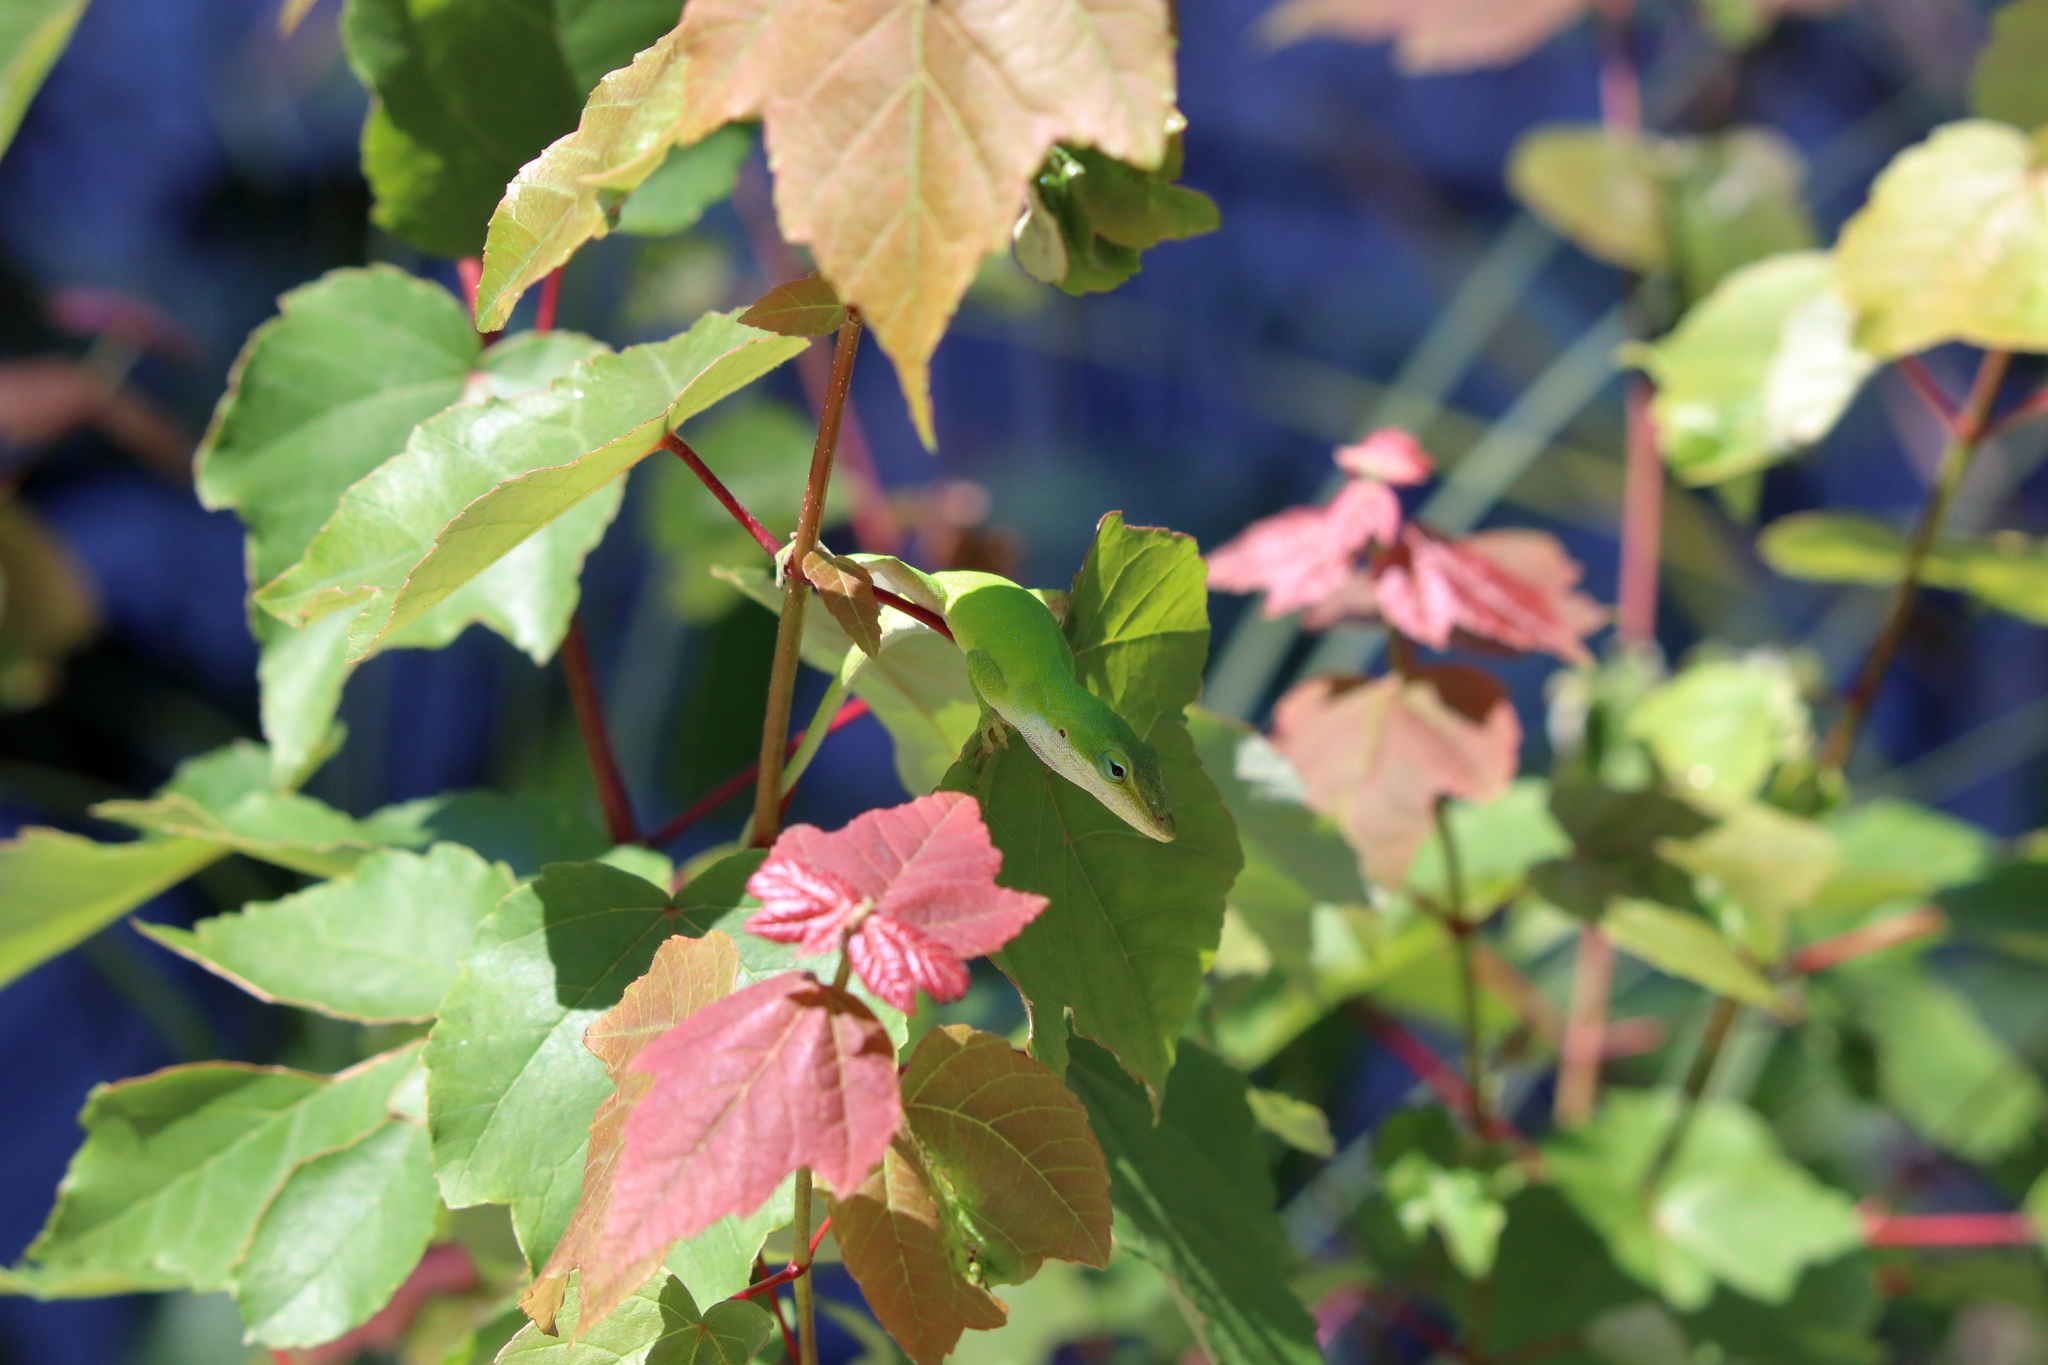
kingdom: Animalia
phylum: Chordata
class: Squamata
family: Dactyloidae
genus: Anolis
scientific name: Anolis carolinensis
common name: Green anole
